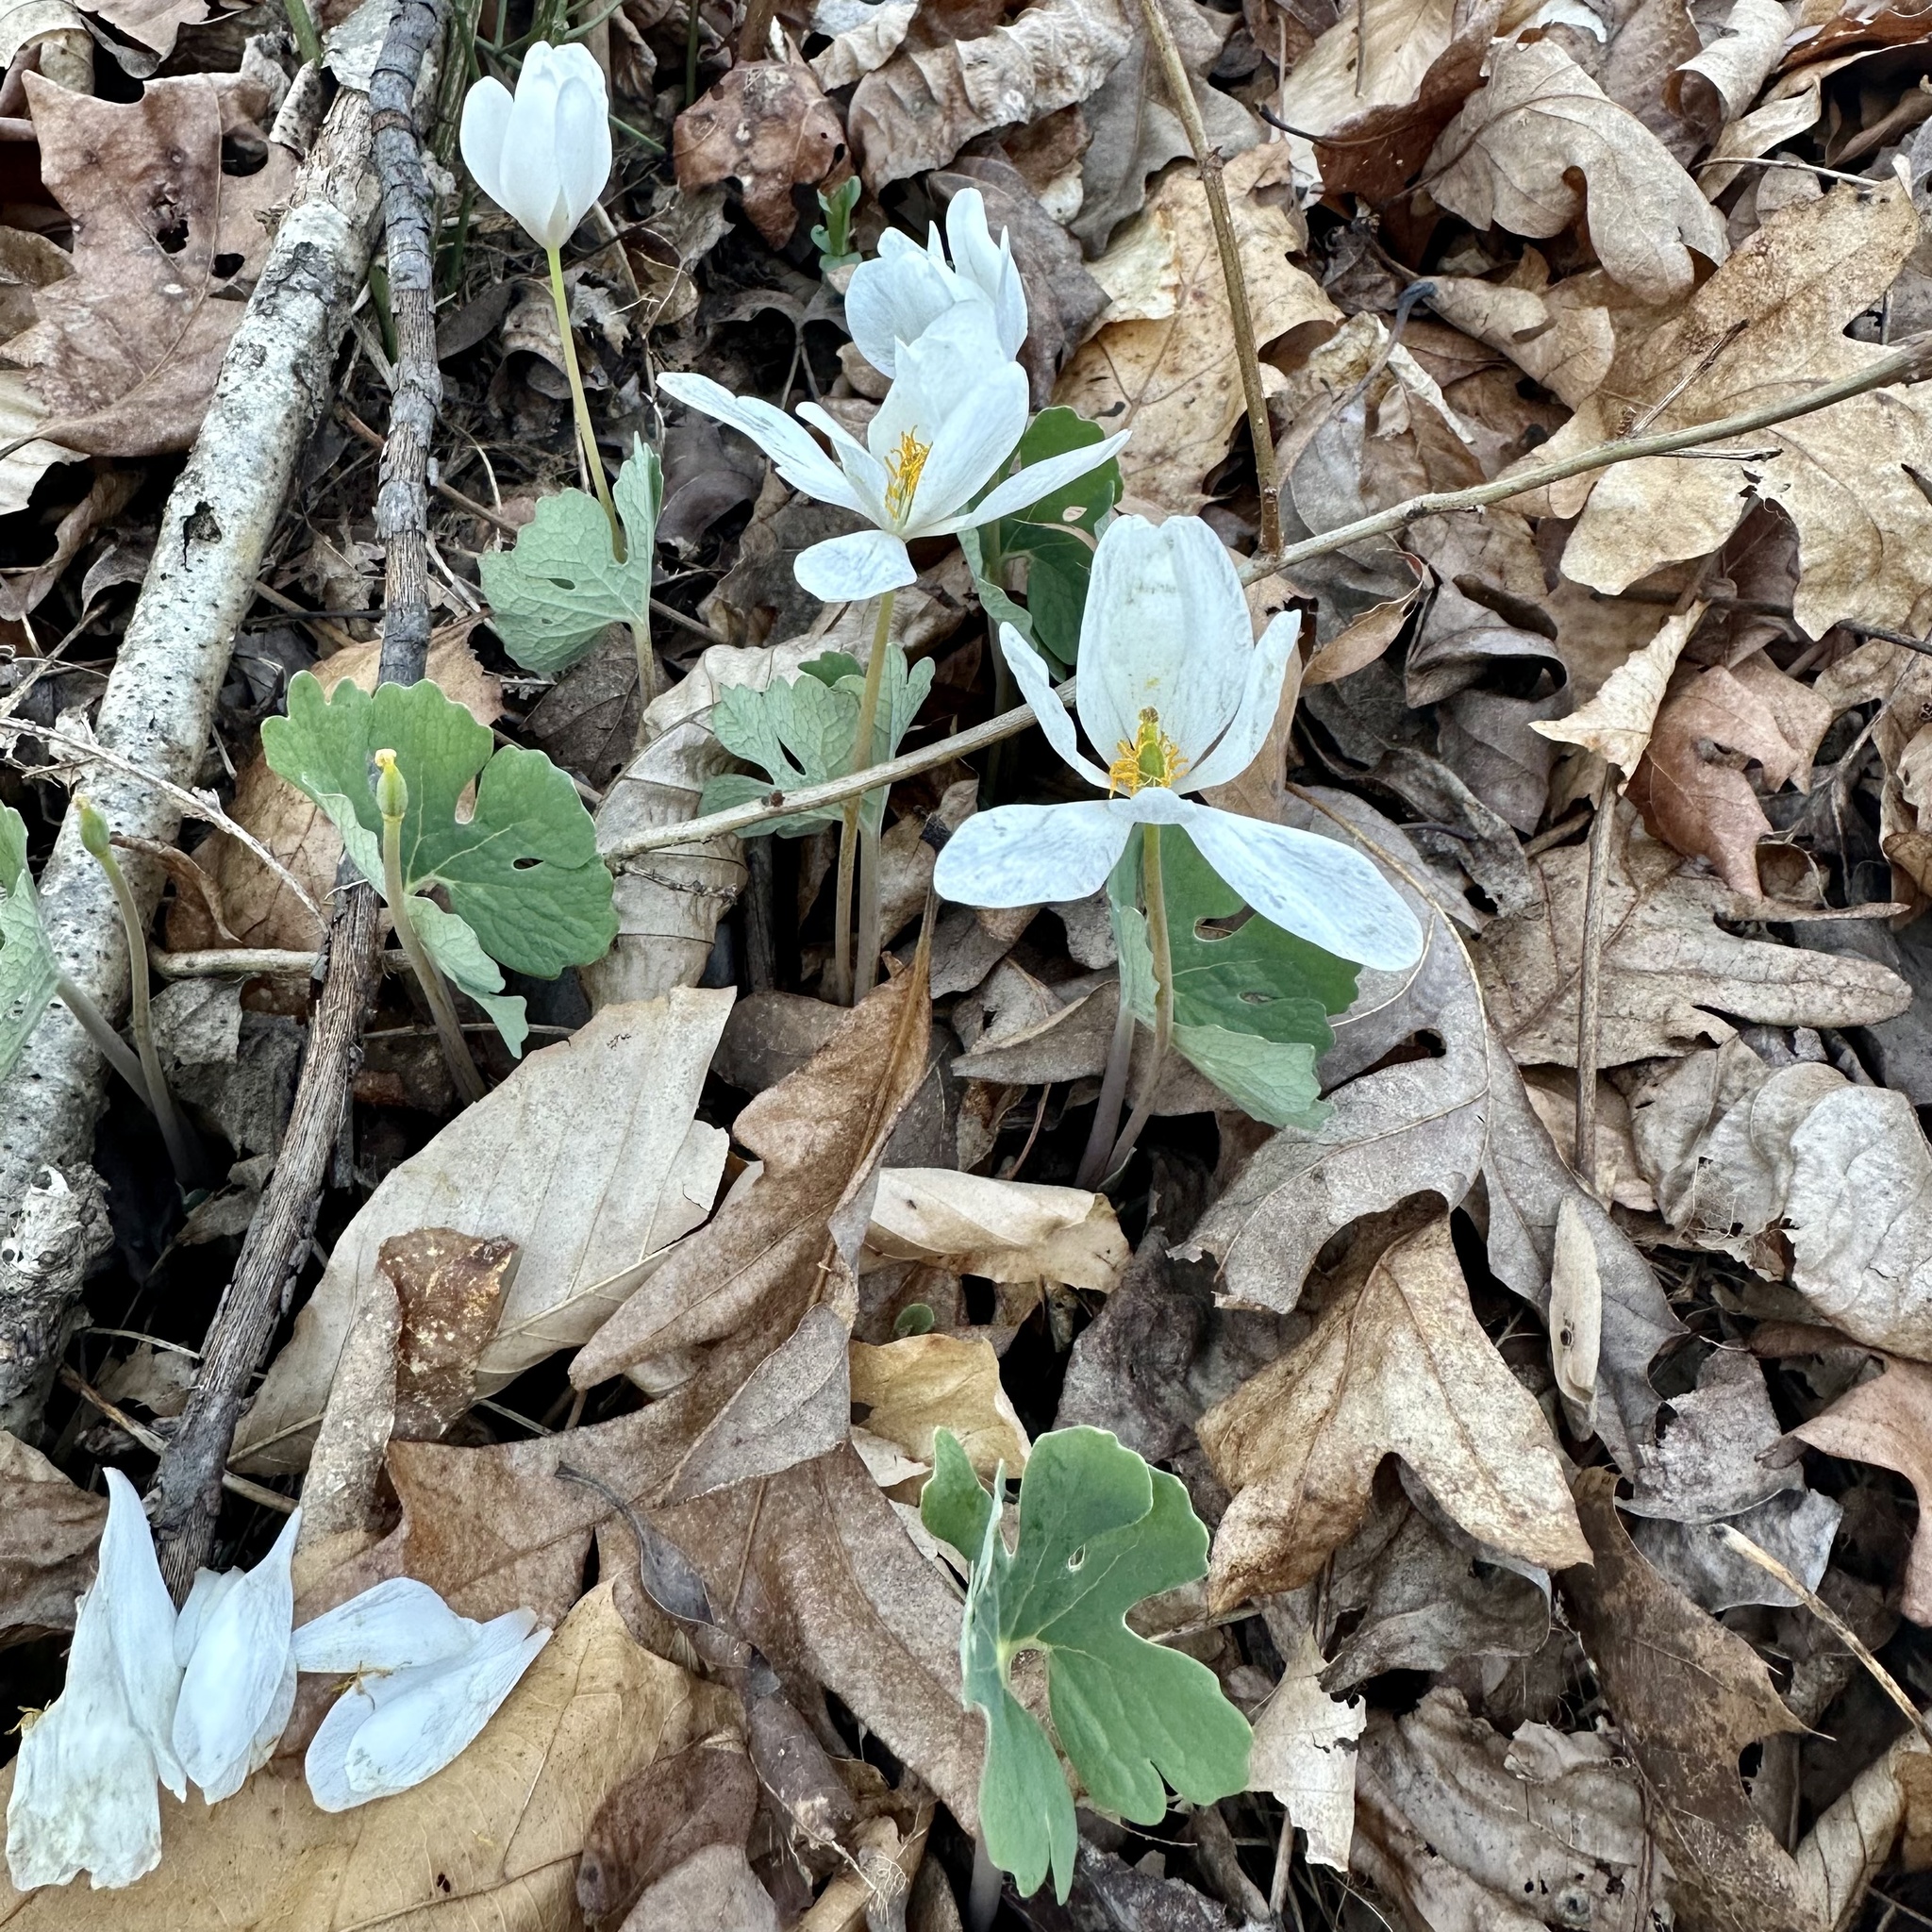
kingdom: Plantae
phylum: Tracheophyta
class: Magnoliopsida
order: Ranunculales
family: Papaveraceae
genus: Sanguinaria
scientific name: Sanguinaria canadensis
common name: Bloodroot
